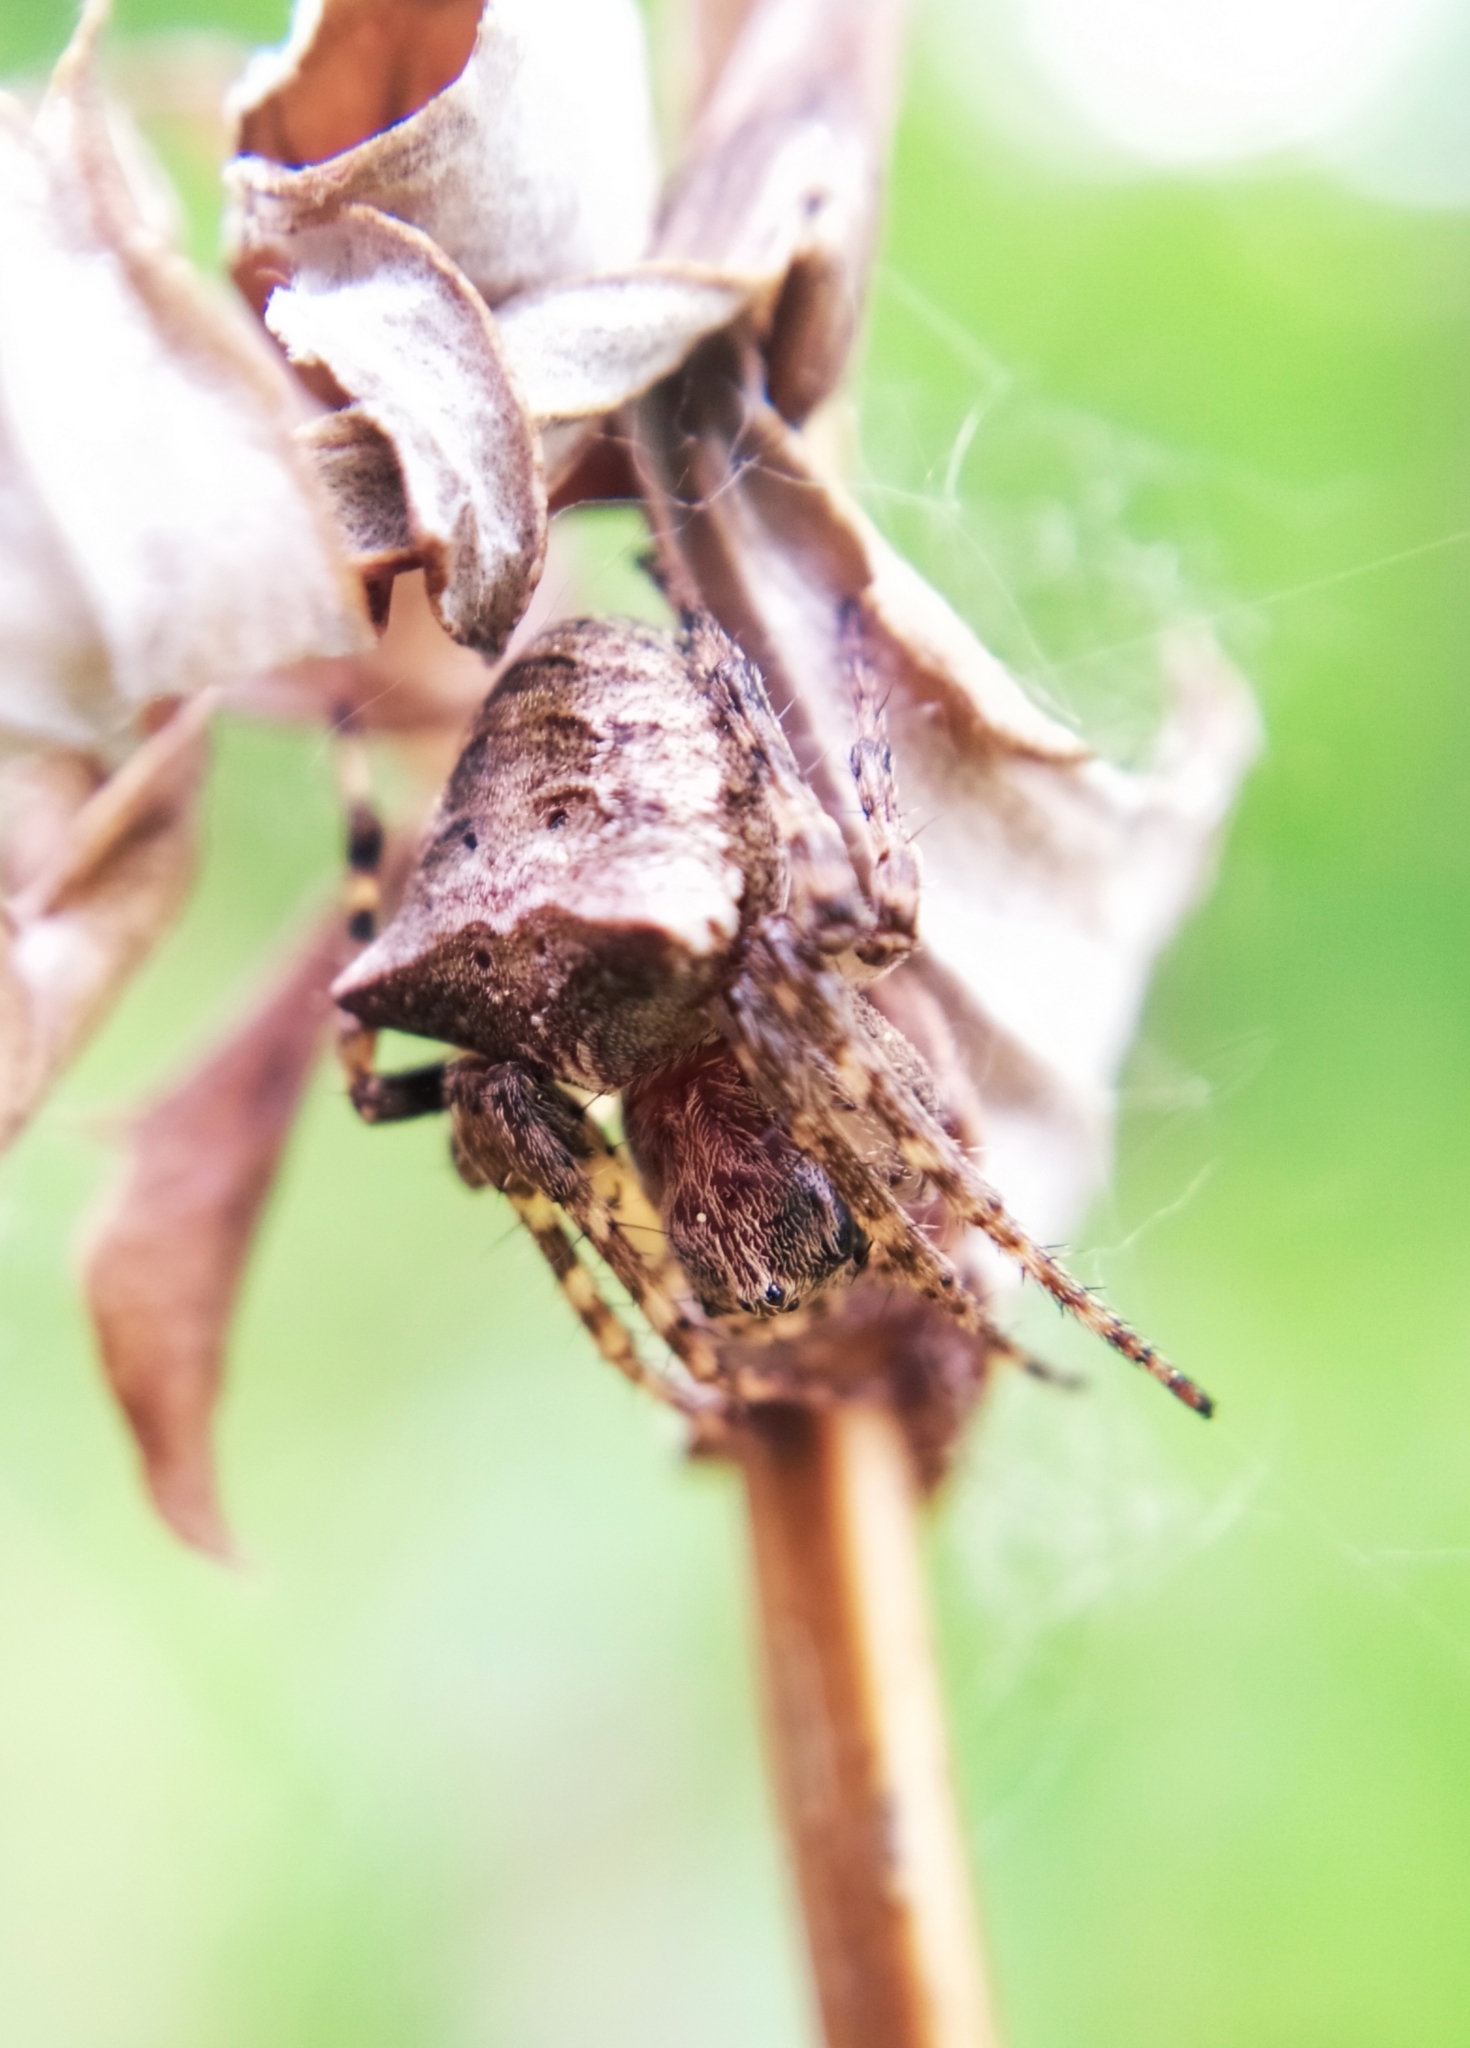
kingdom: Animalia
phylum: Arthropoda
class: Arachnida
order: Araneae
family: Araneidae
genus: Gibbaranea
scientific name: Gibbaranea bituberculata
